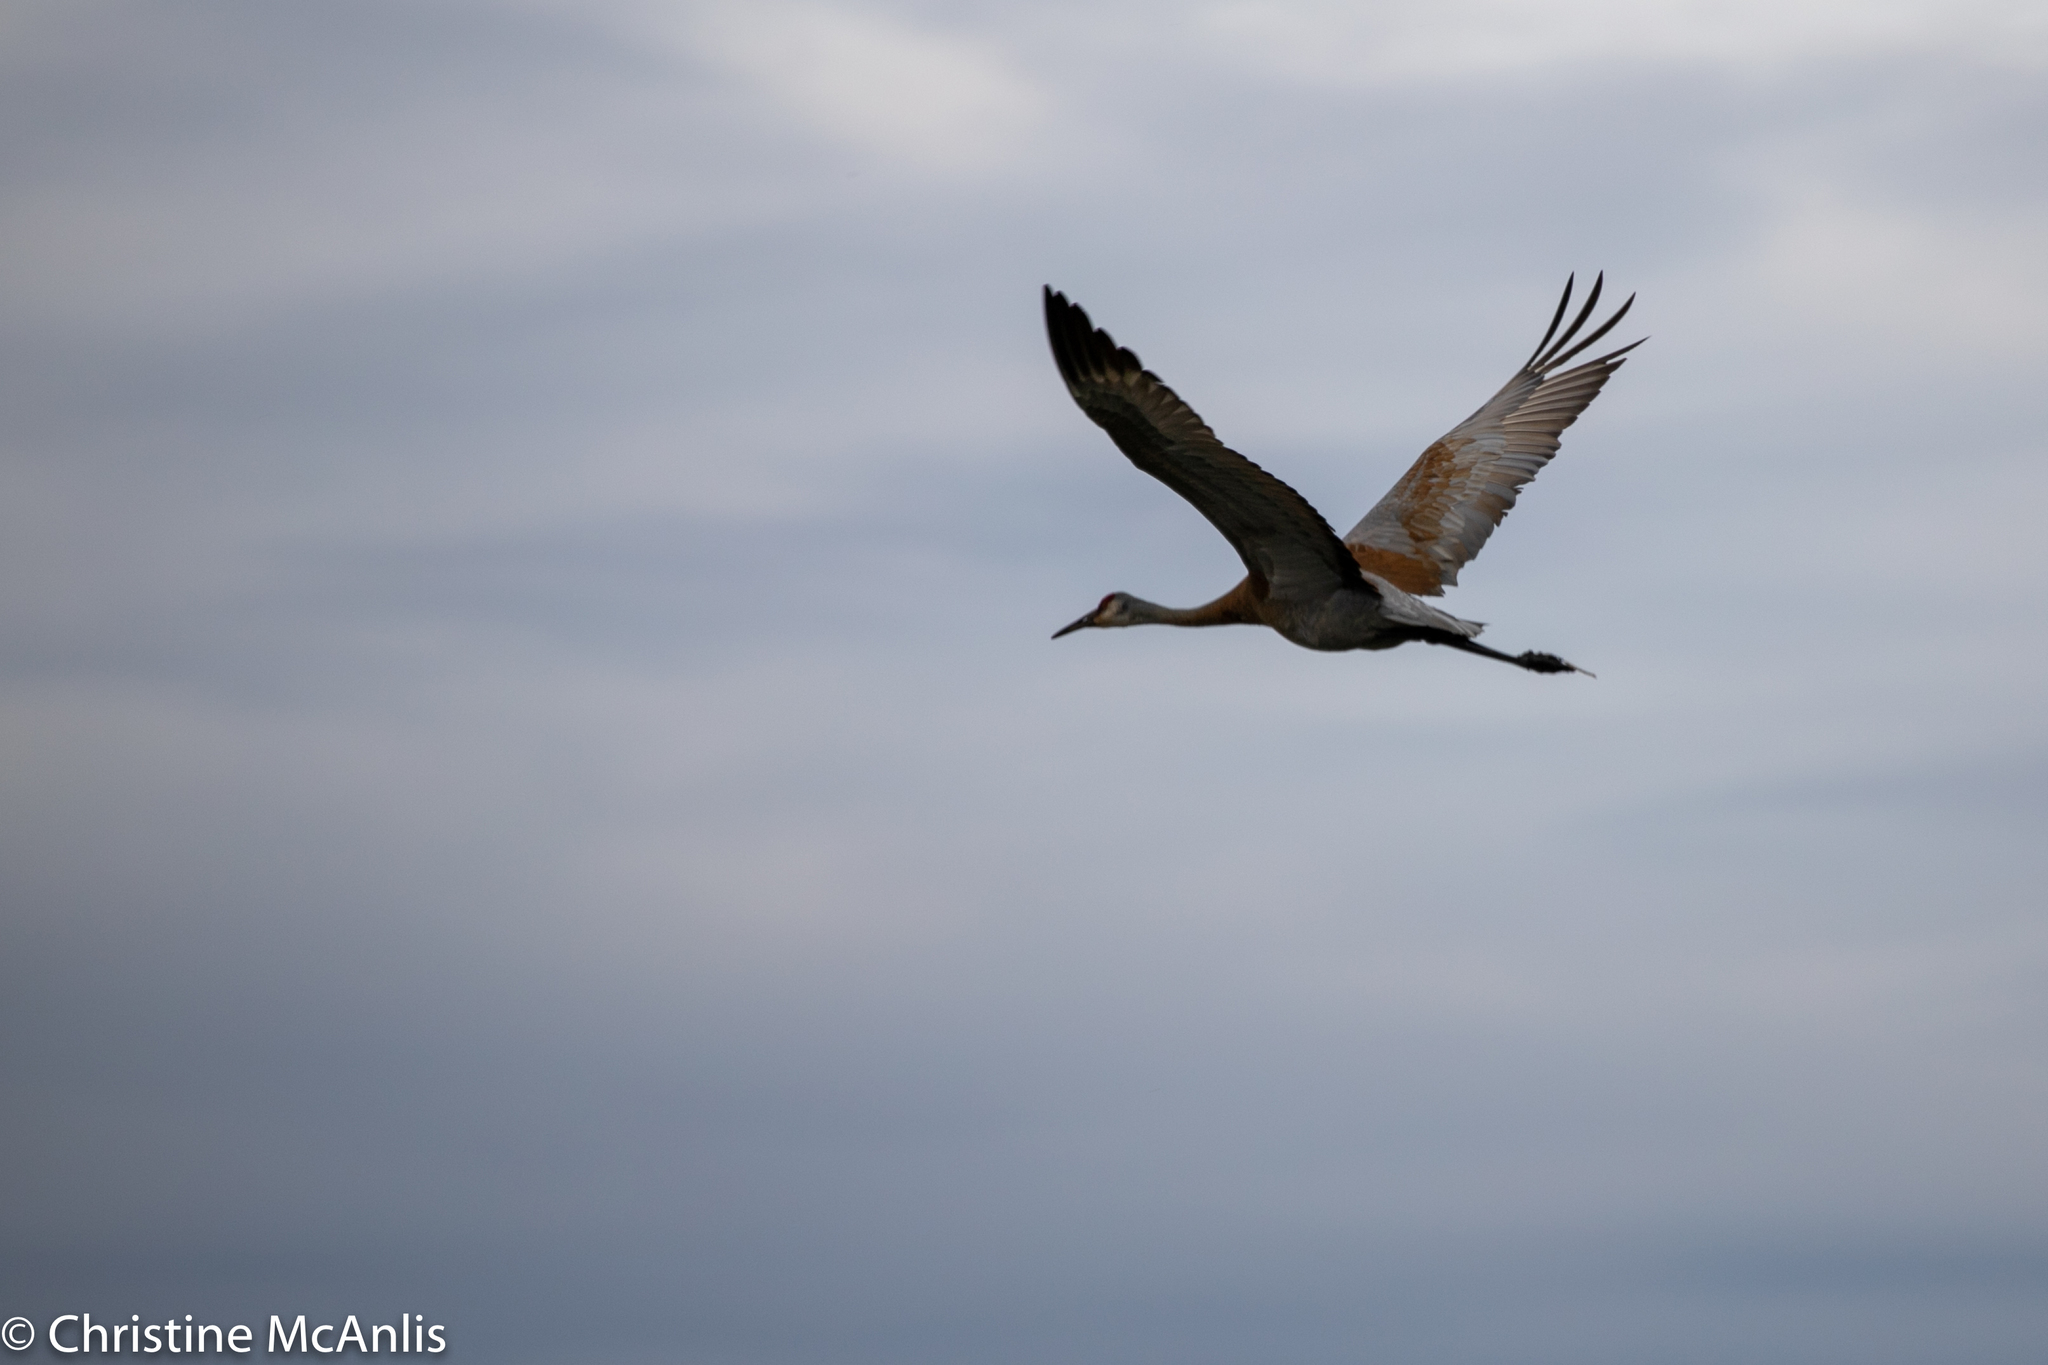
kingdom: Animalia
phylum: Chordata
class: Aves
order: Gruiformes
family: Gruidae
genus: Grus
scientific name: Grus canadensis
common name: Sandhill crane
